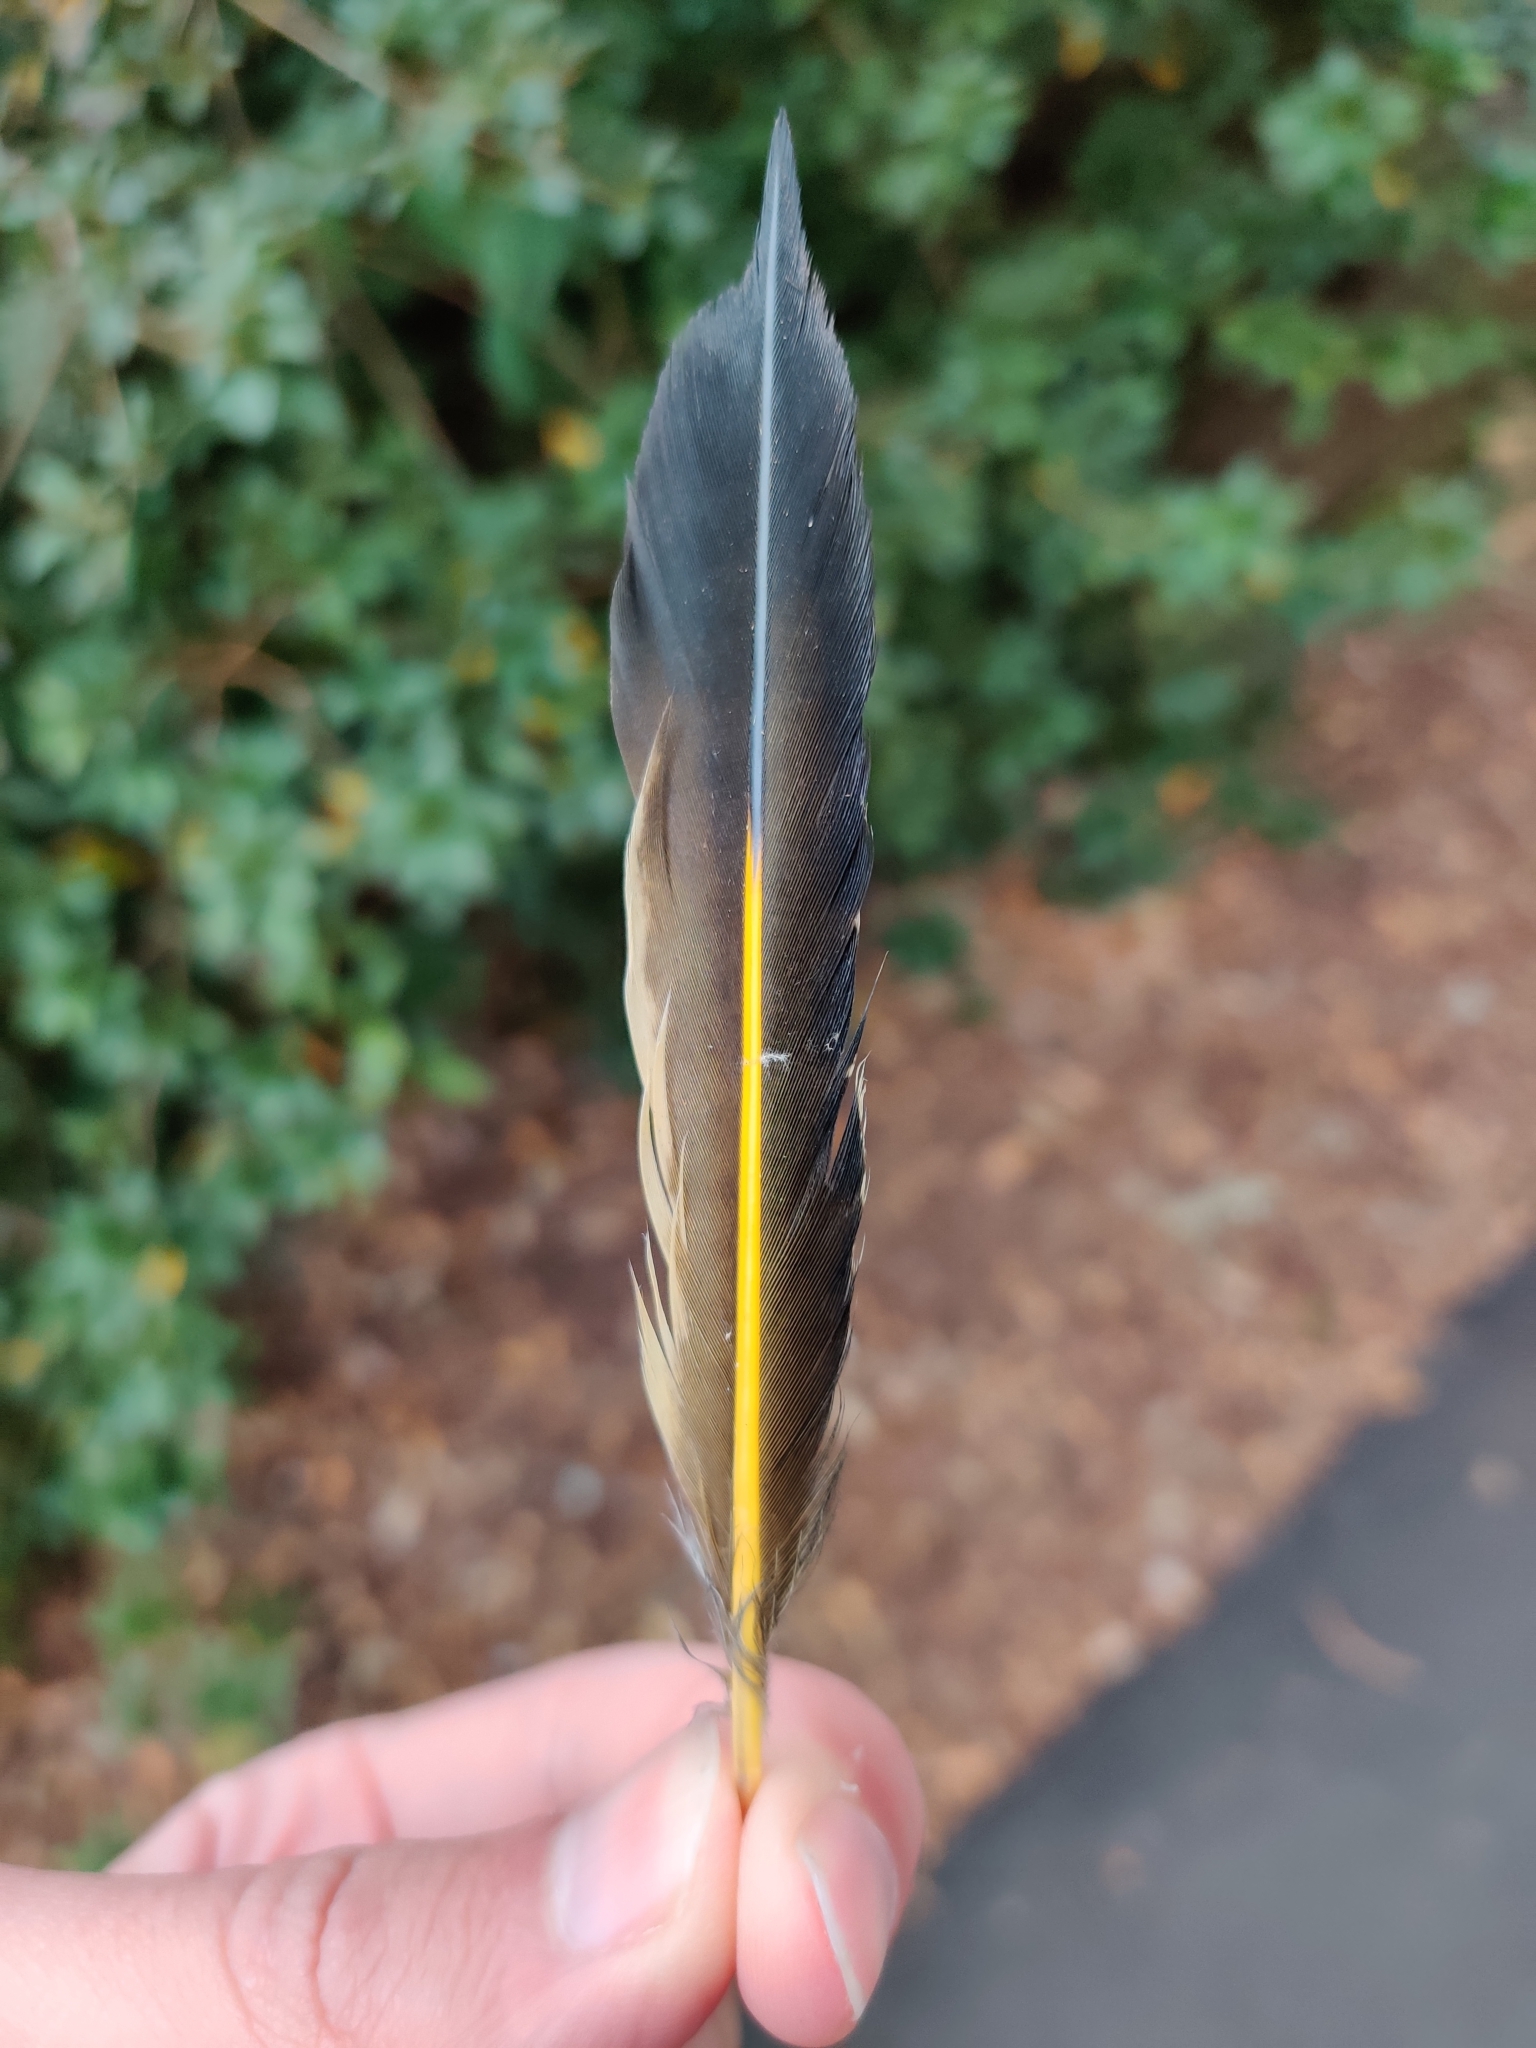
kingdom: Animalia
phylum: Chordata
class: Aves
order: Piciformes
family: Picidae
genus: Colaptes
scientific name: Colaptes auratus
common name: Northern flicker
